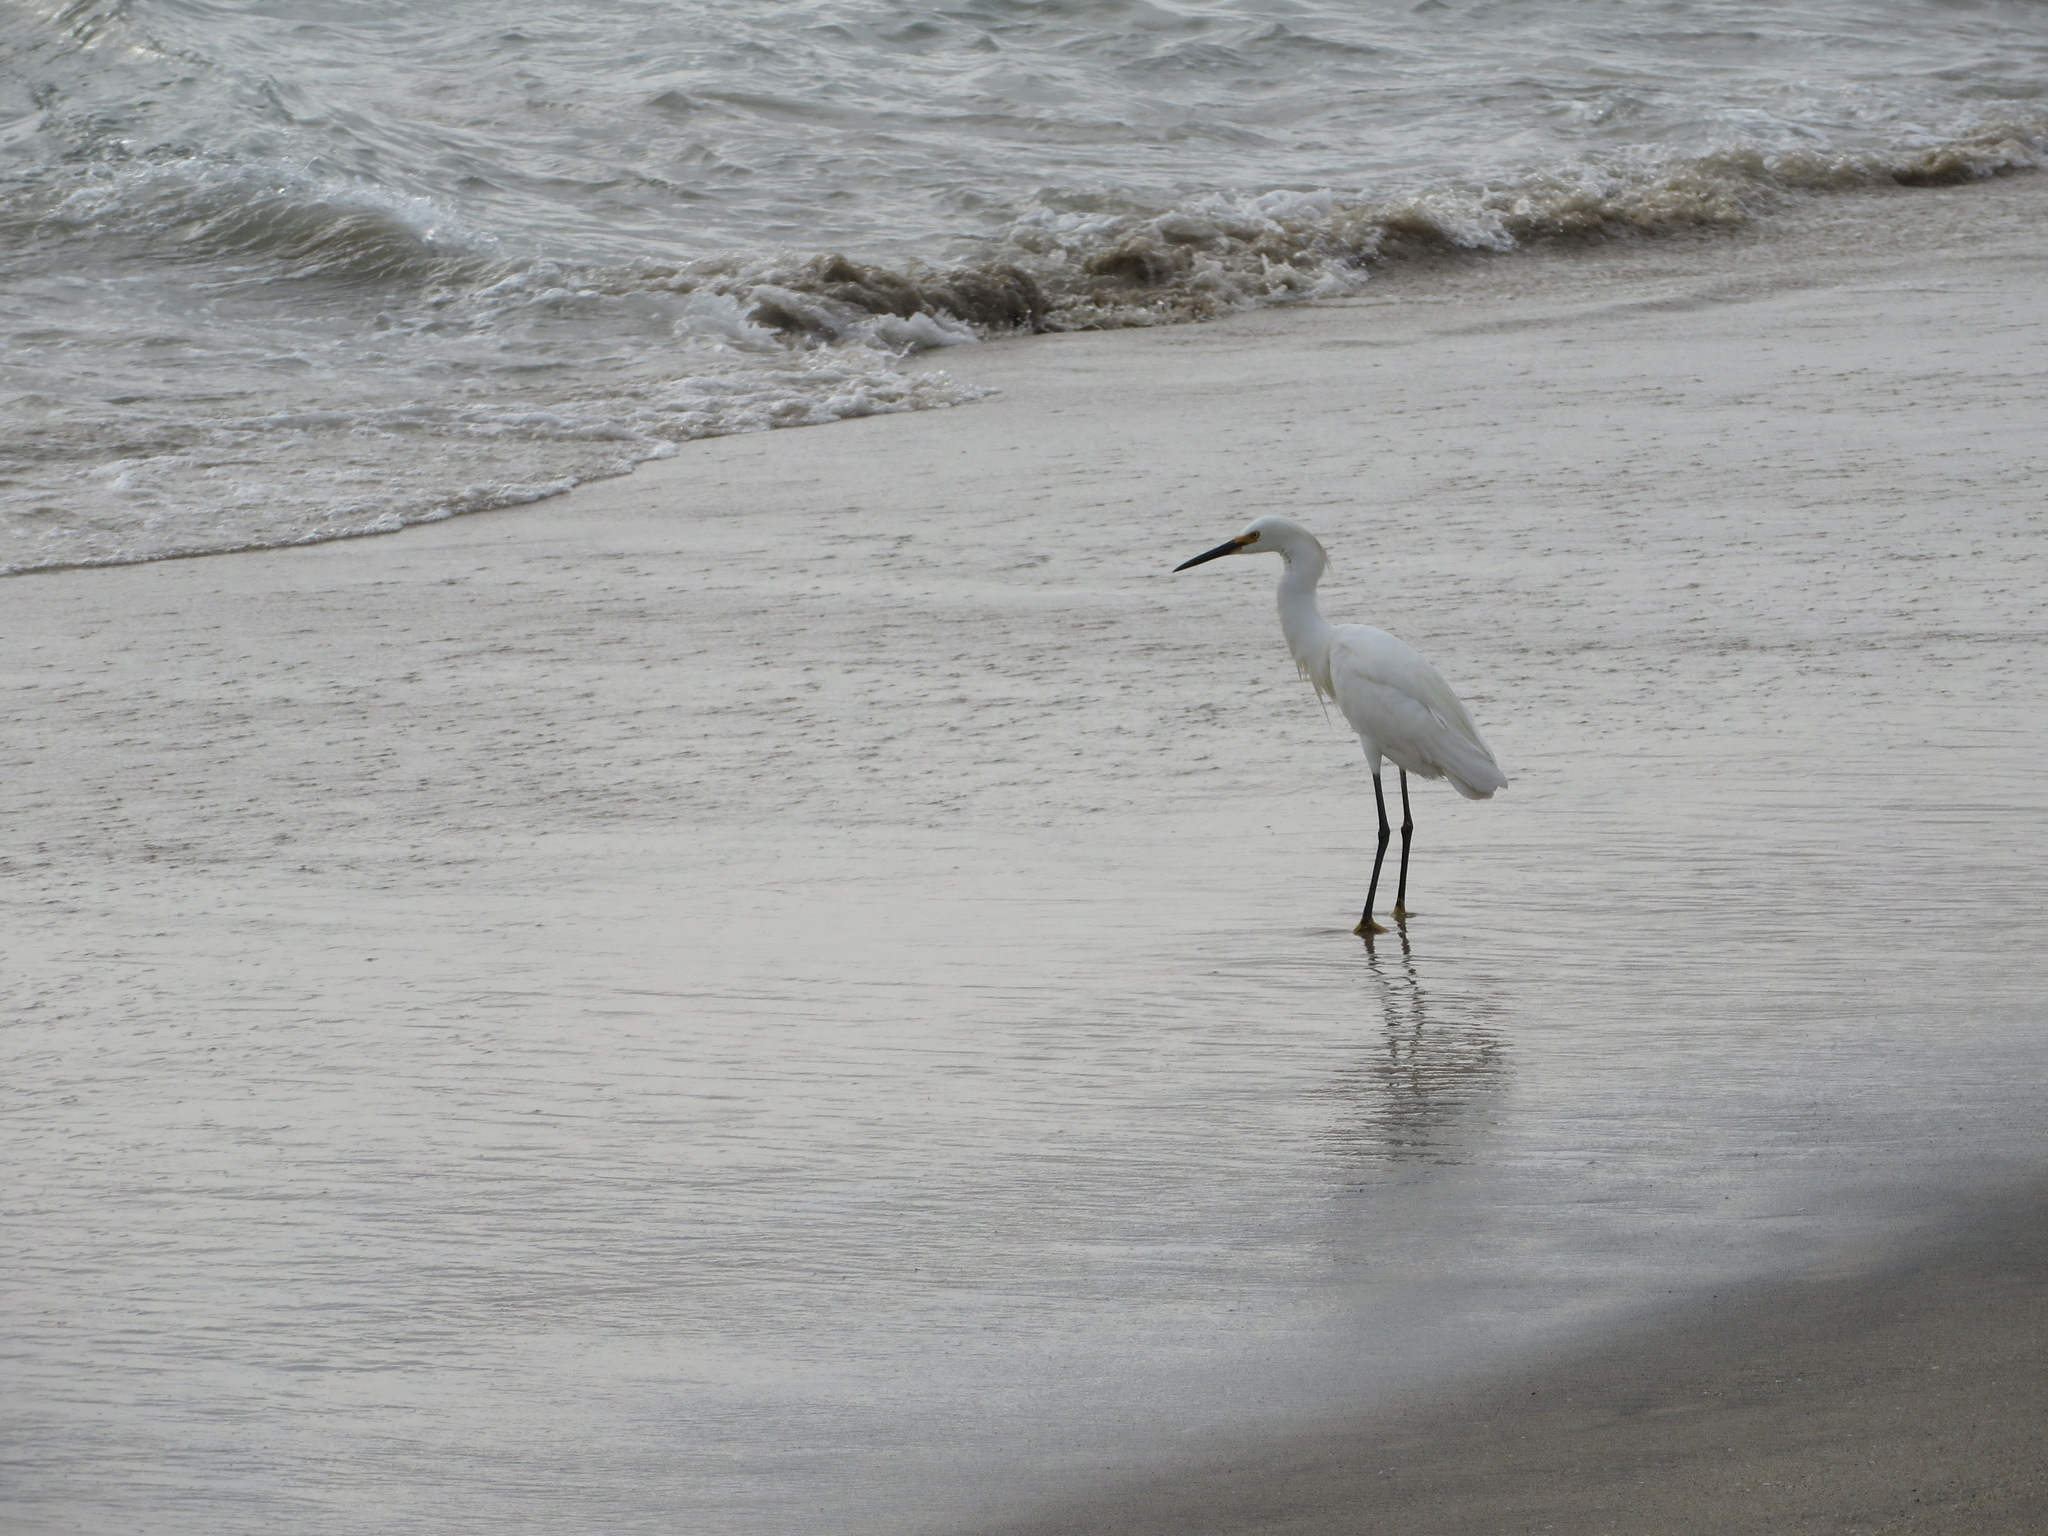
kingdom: Animalia
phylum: Chordata
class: Aves
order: Pelecaniformes
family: Ardeidae
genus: Egretta
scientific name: Egretta thula
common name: Snowy egret
